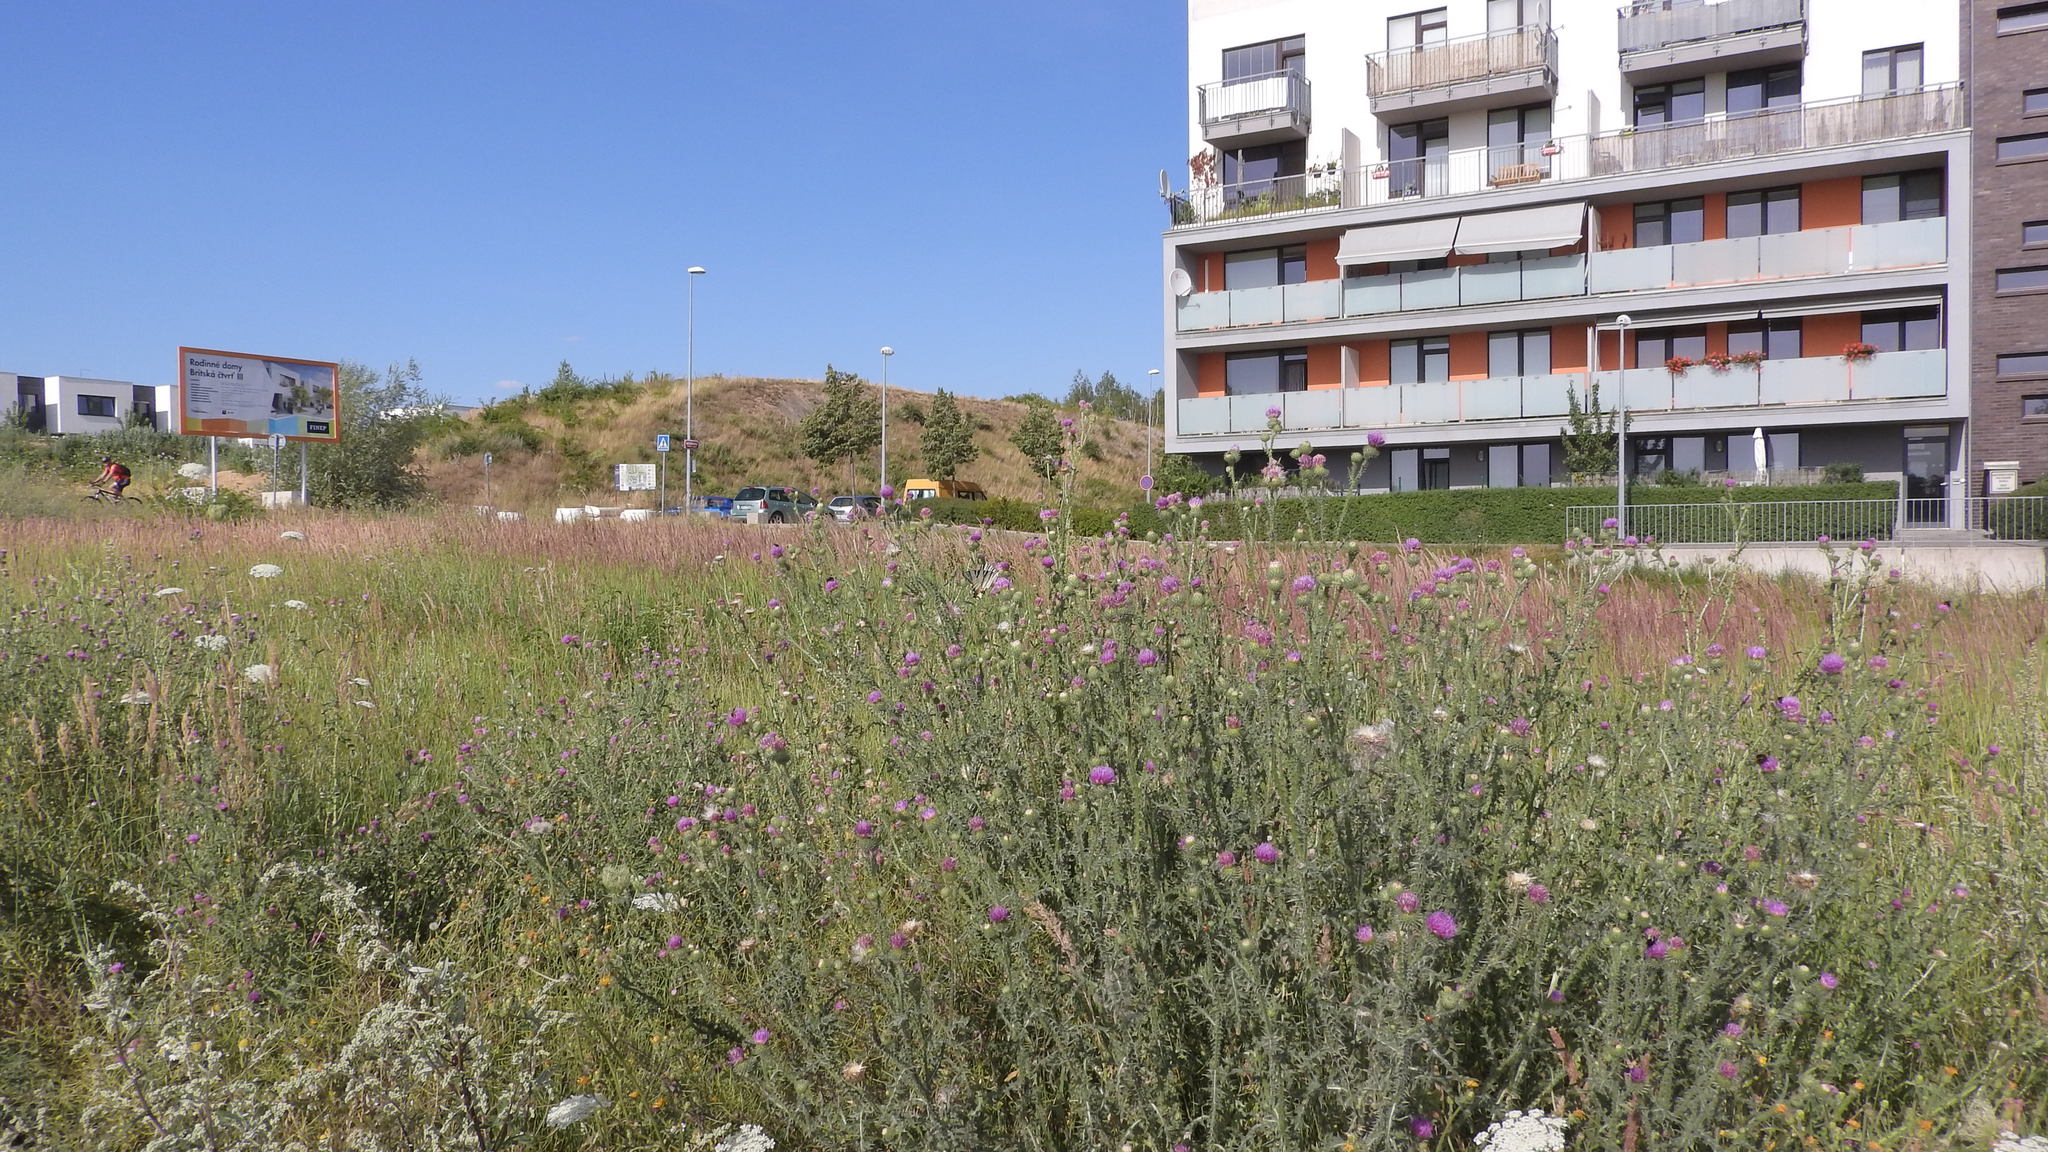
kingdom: Animalia
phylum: Arthropoda
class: Insecta
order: Lepidoptera
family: Papilionidae
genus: Iphiclides
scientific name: Iphiclides podalirius
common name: Scarce swallowtail
